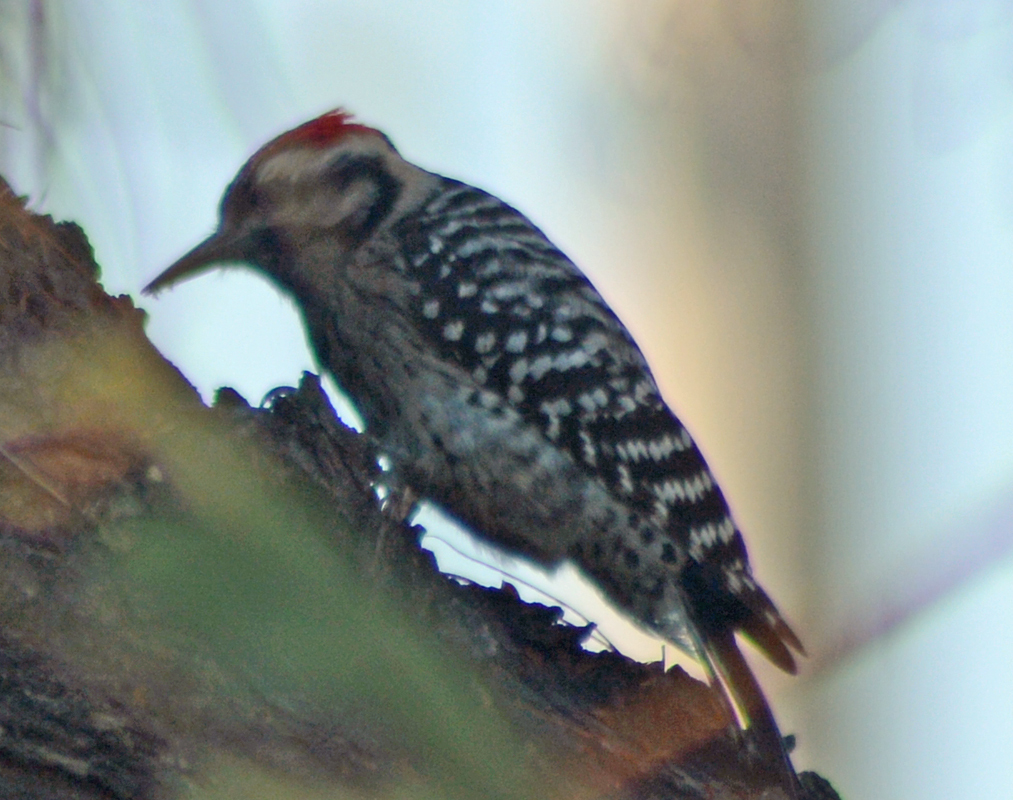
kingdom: Animalia
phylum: Chordata
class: Aves
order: Piciformes
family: Picidae
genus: Dryobates
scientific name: Dryobates scalaris
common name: Ladder-backed woodpecker
